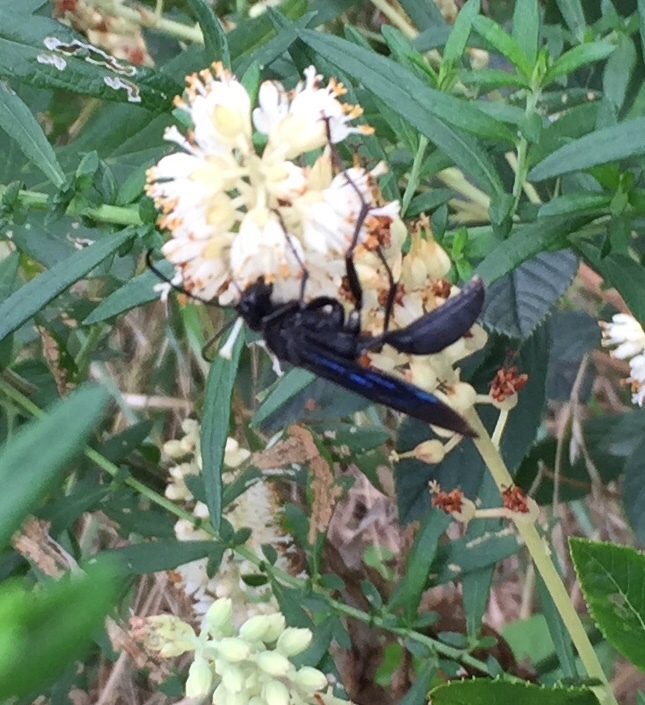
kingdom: Animalia
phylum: Arthropoda
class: Insecta
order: Hymenoptera
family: Sphecidae
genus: Sphex
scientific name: Sphex pensylvanicus
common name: Great black digger wasp
